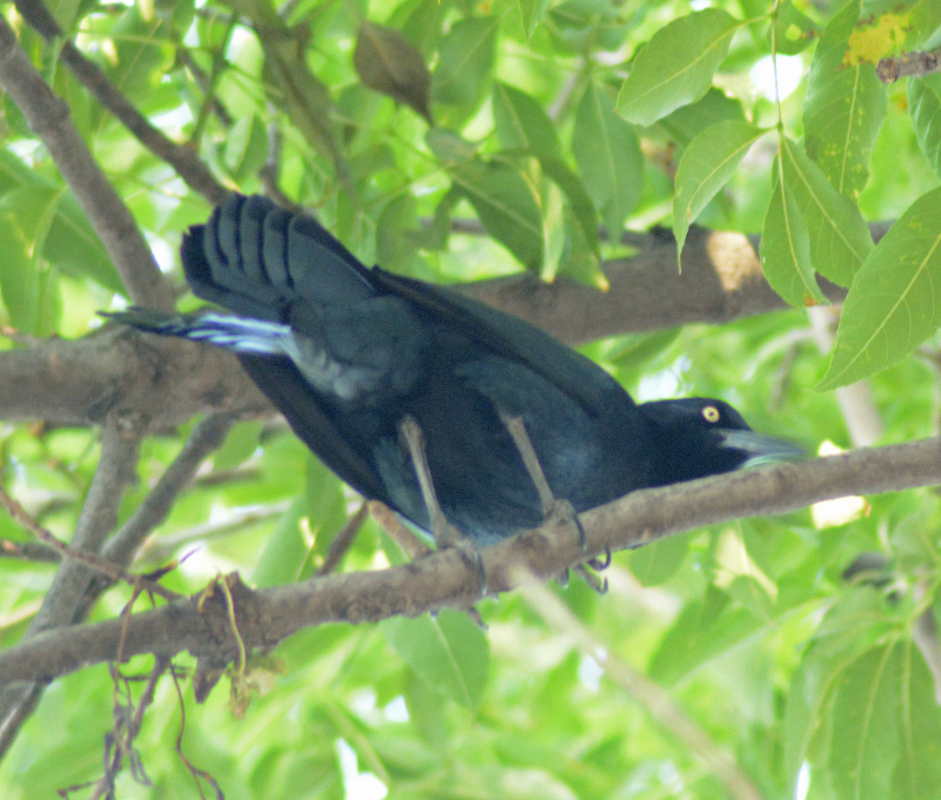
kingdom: Animalia
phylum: Chordata
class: Aves
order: Passeriformes
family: Icteridae
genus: Quiscalus
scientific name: Quiscalus mexicanus
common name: Great-tailed grackle
